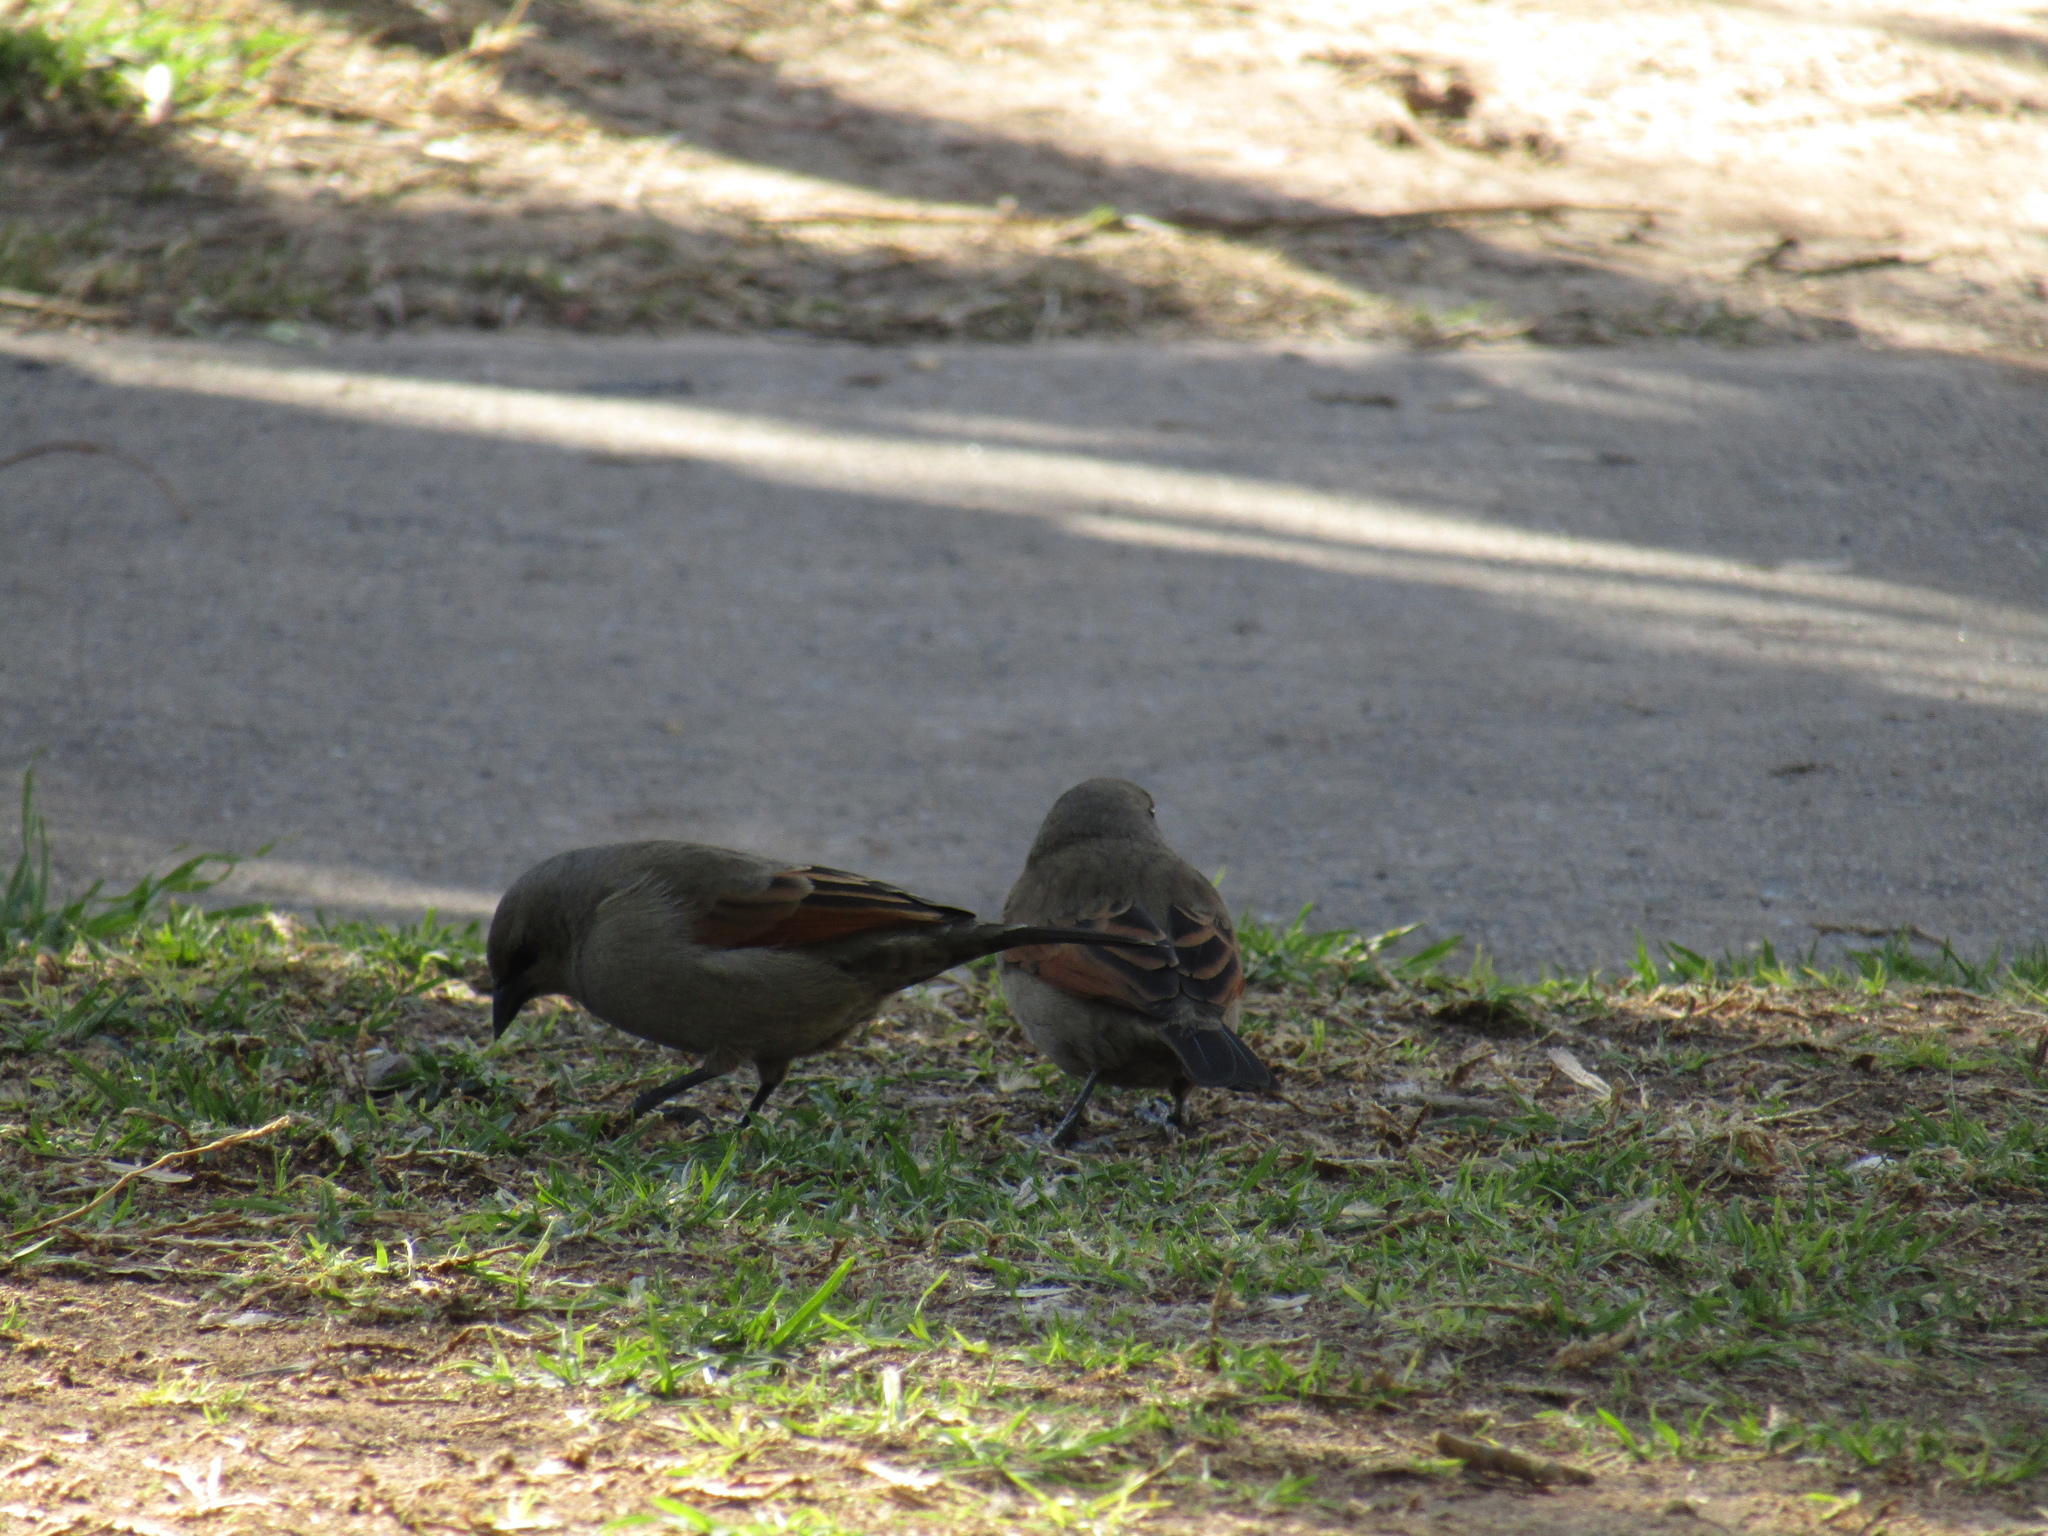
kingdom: Animalia
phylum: Chordata
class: Aves
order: Passeriformes
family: Icteridae
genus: Agelaioides
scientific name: Agelaioides badius
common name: Baywing
